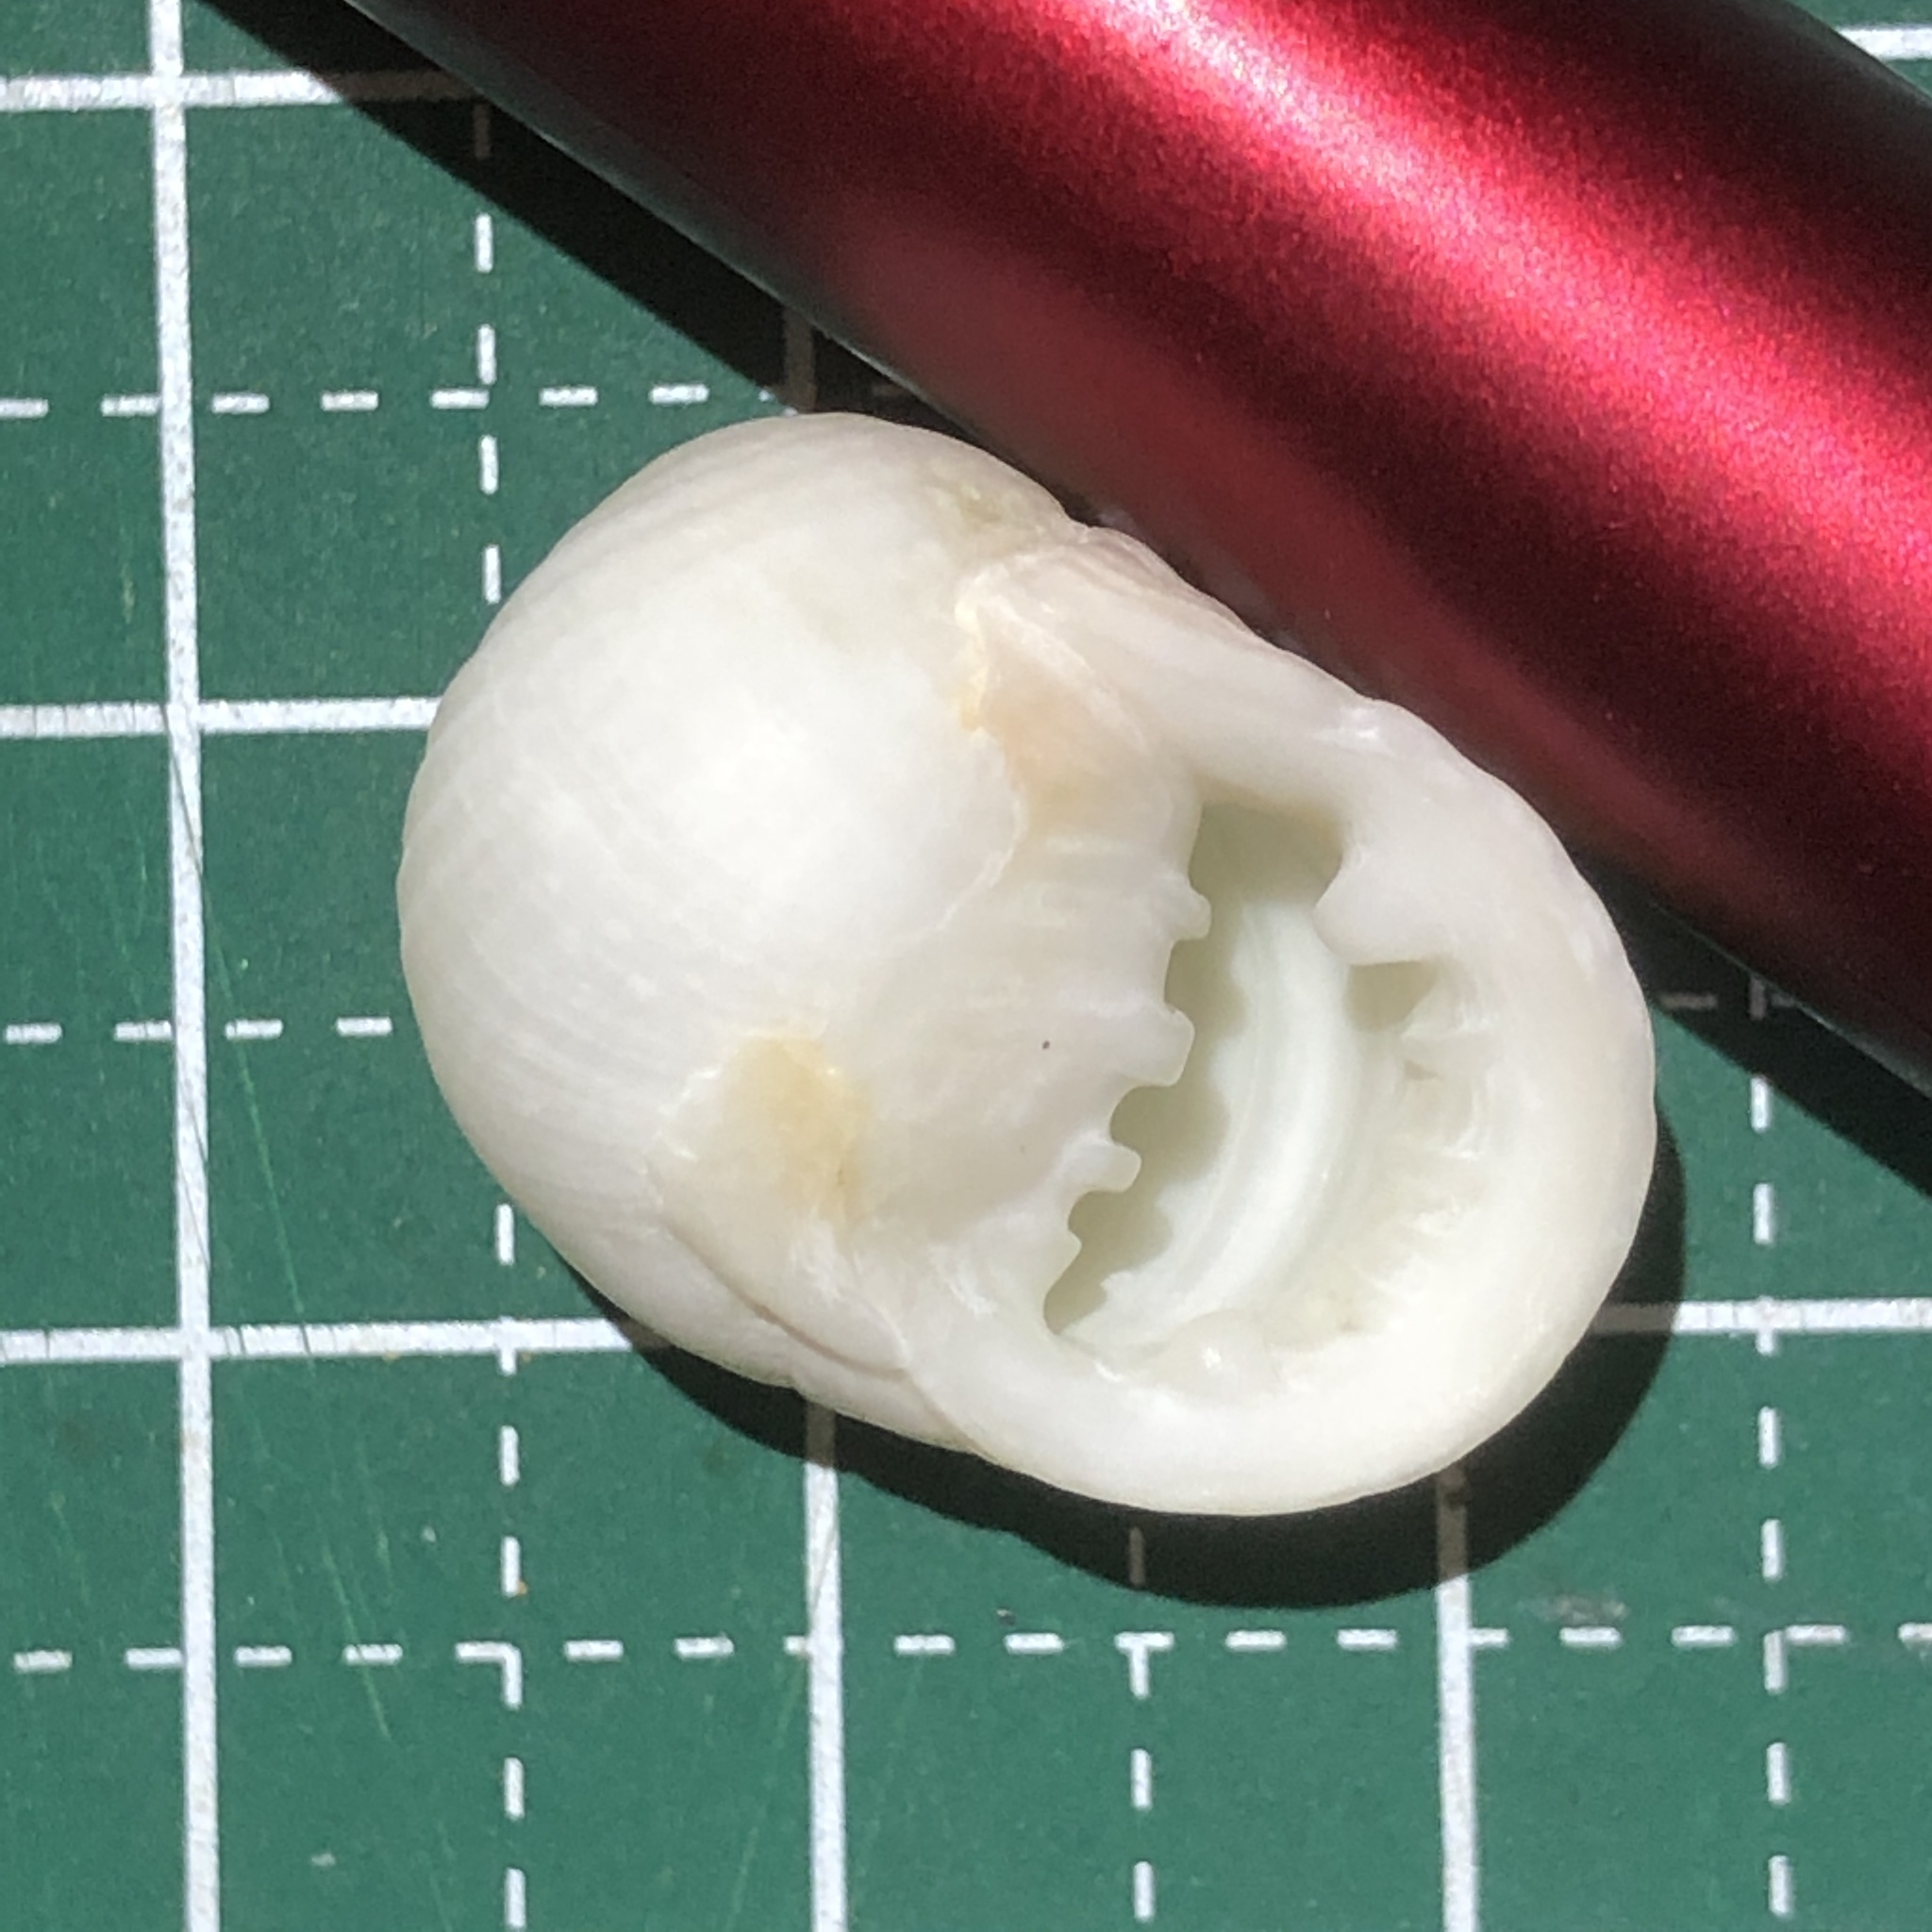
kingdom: Animalia
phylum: Mollusca
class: Gastropoda
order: Cycloneritida
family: Neritidae
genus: Nerita
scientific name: Nerita plicata
